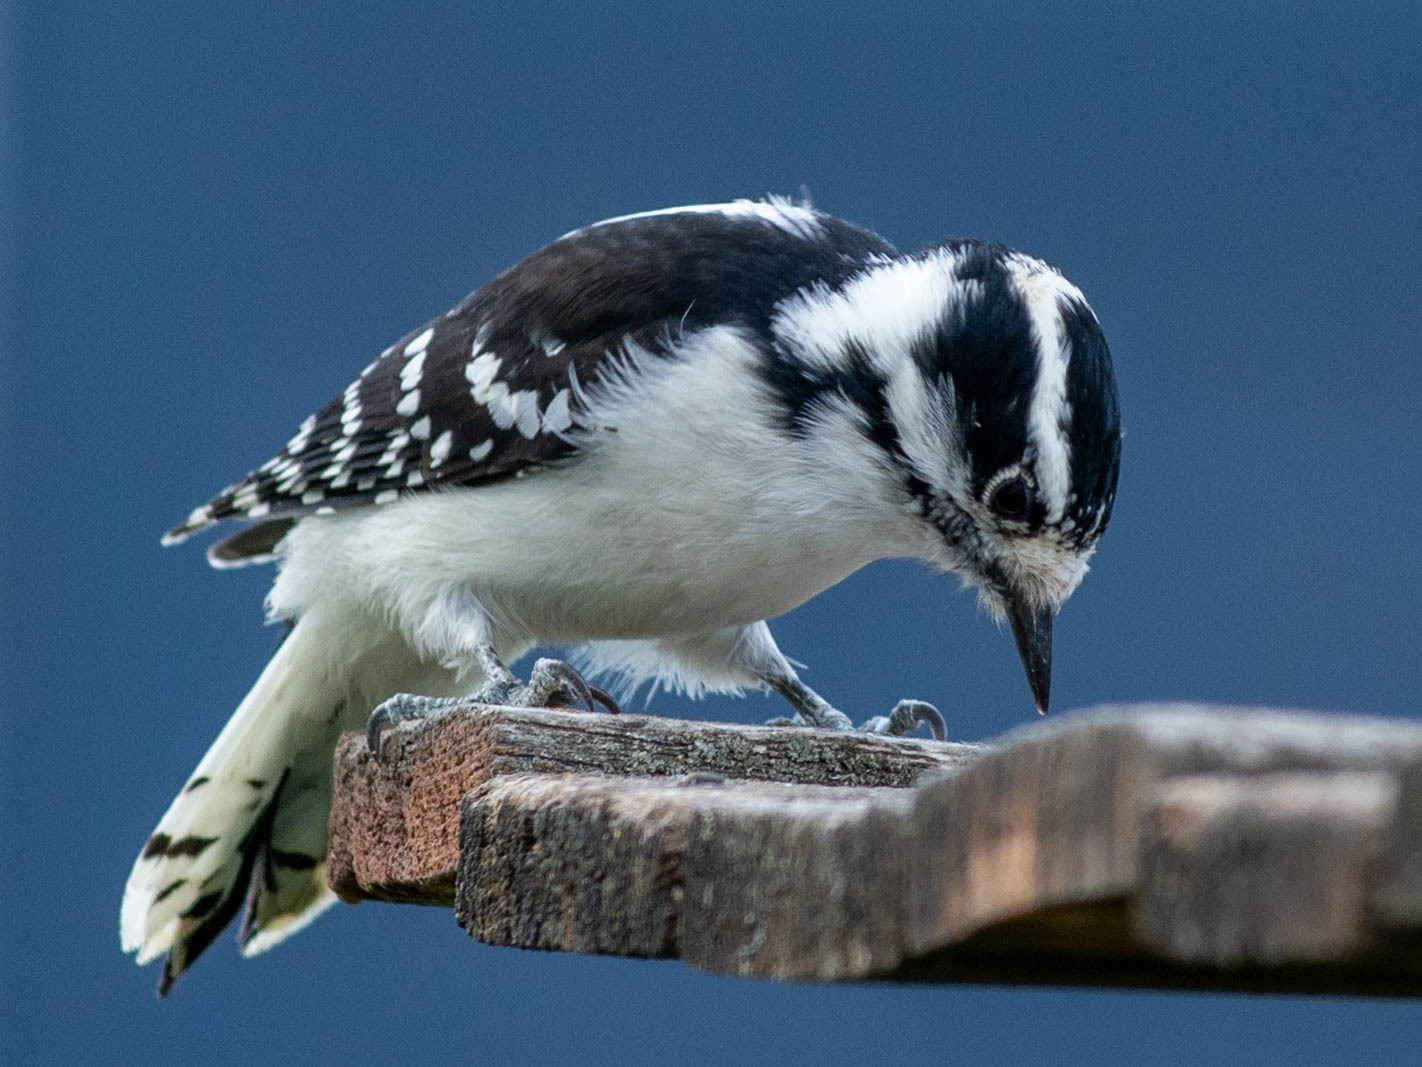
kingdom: Animalia
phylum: Chordata
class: Aves
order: Piciformes
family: Picidae
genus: Dryobates
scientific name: Dryobates pubescens
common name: Downy woodpecker
